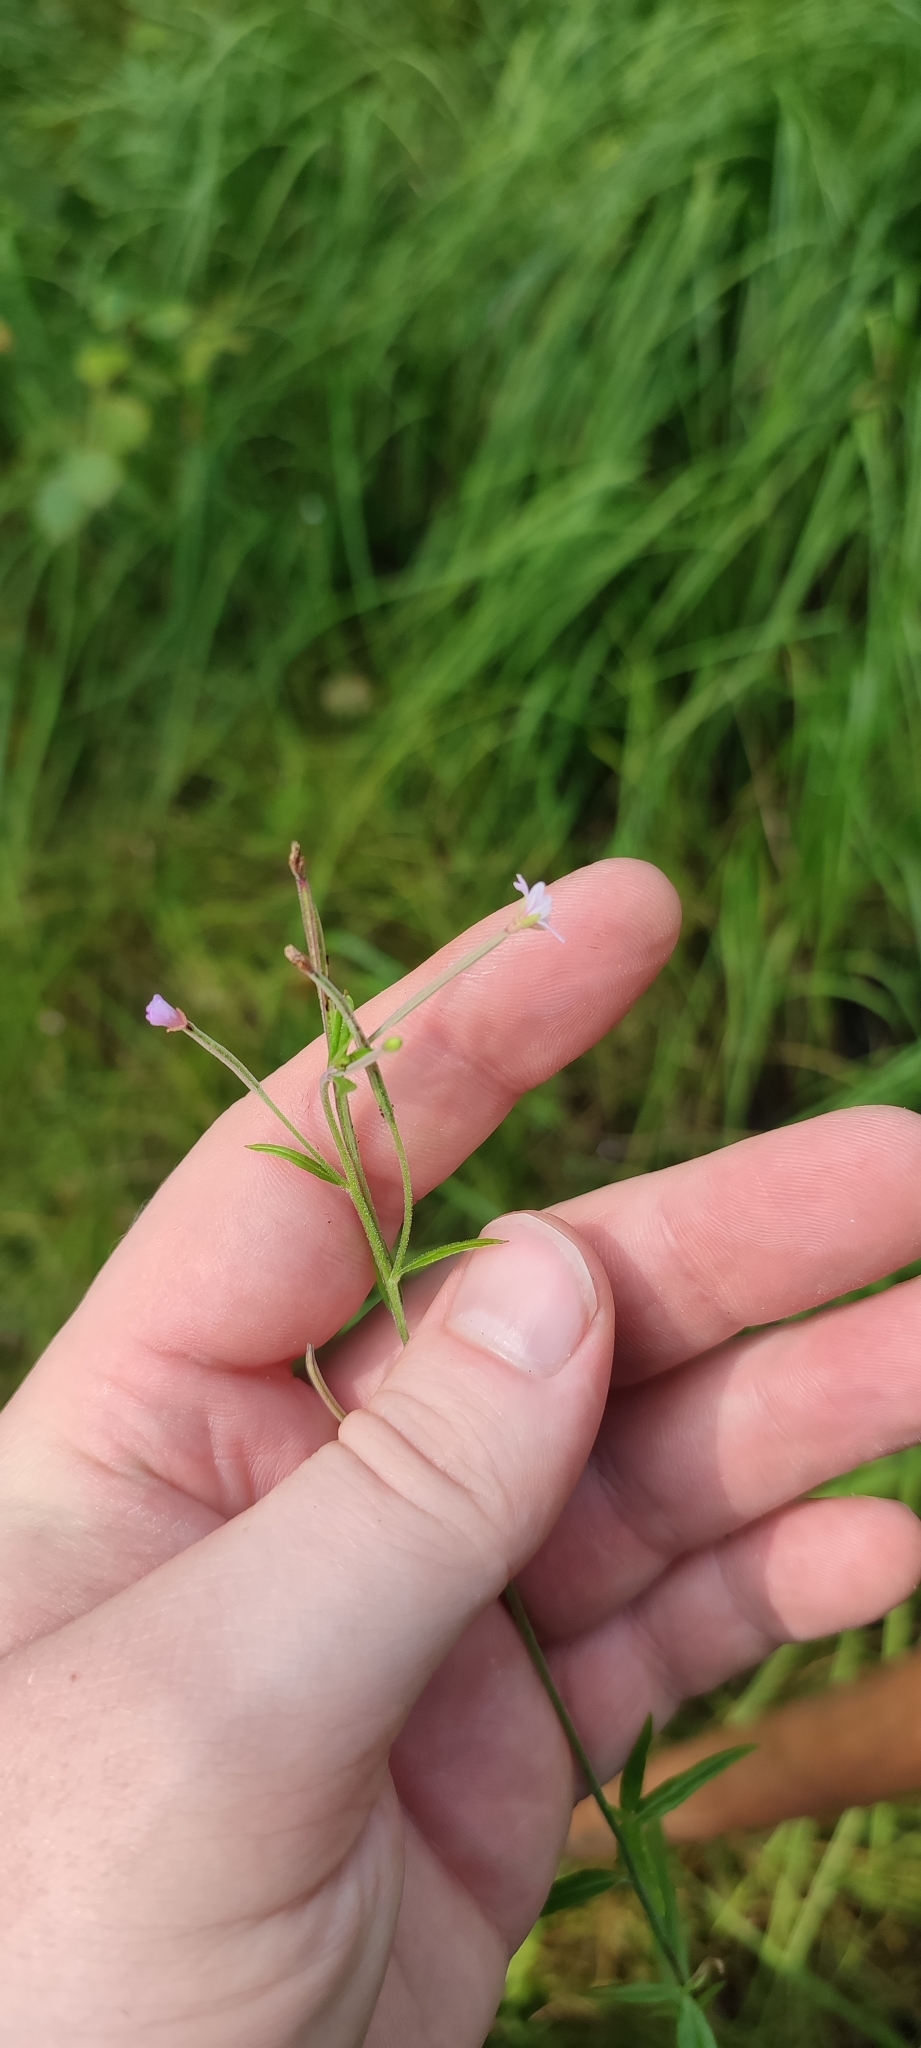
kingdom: Plantae
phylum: Tracheophyta
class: Magnoliopsida
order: Myrtales
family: Onagraceae
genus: Epilobium
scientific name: Epilobium palustre
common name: Marsh willowherb
